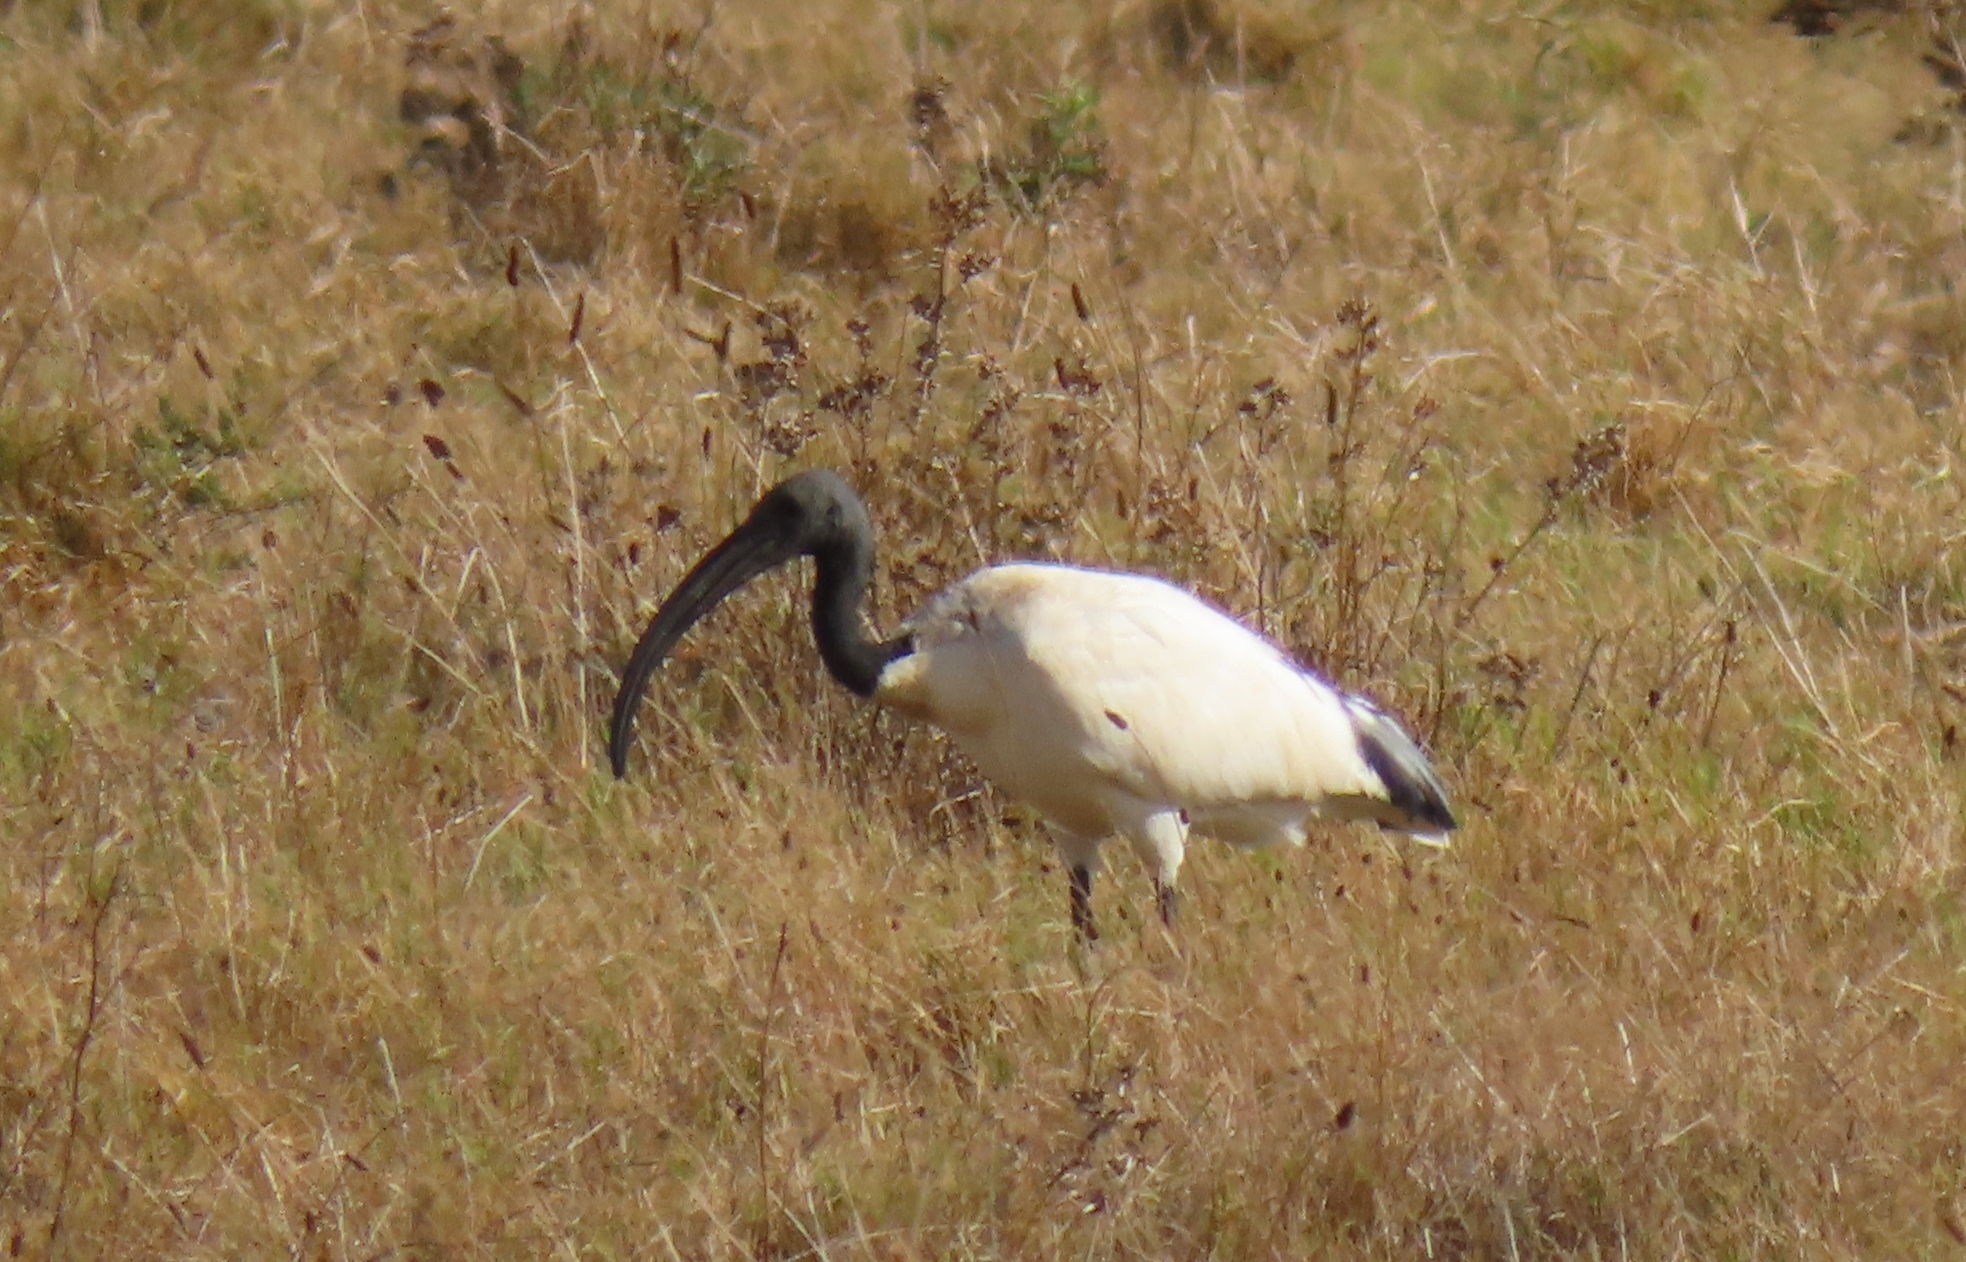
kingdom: Animalia
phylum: Chordata
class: Aves
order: Pelecaniformes
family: Threskiornithidae
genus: Threskiornis
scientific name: Threskiornis aethiopicus
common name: Sacred ibis
